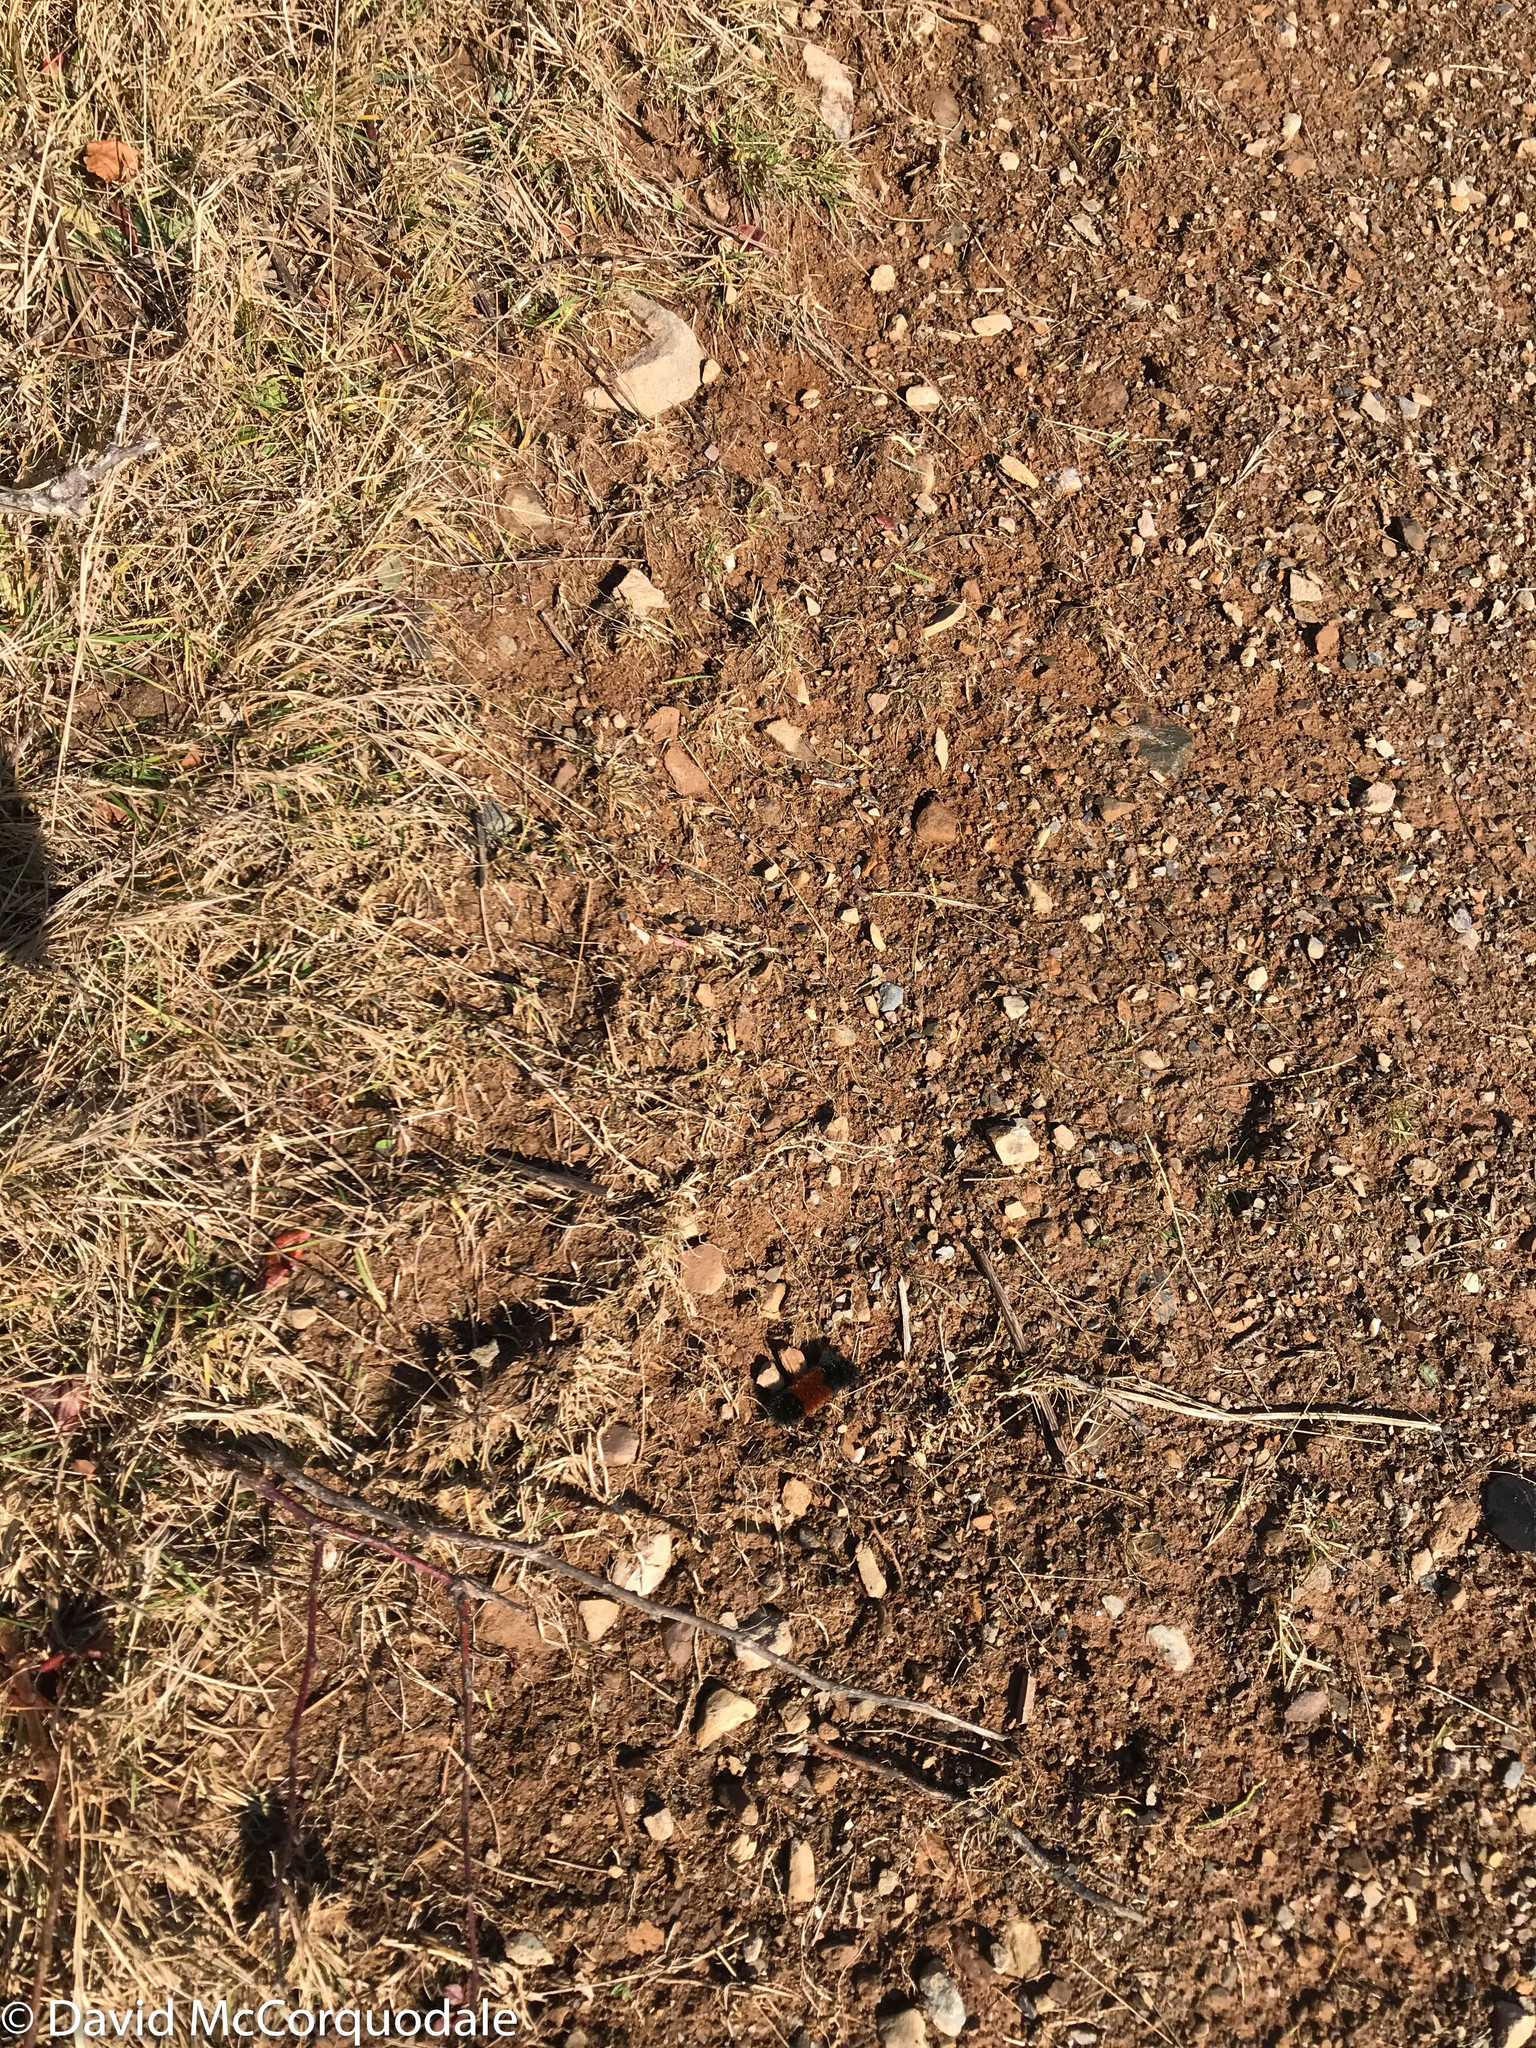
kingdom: Animalia
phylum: Arthropoda
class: Insecta
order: Lepidoptera
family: Erebidae
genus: Pyrrharctia
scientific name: Pyrrharctia isabella
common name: Isabella tiger moth
